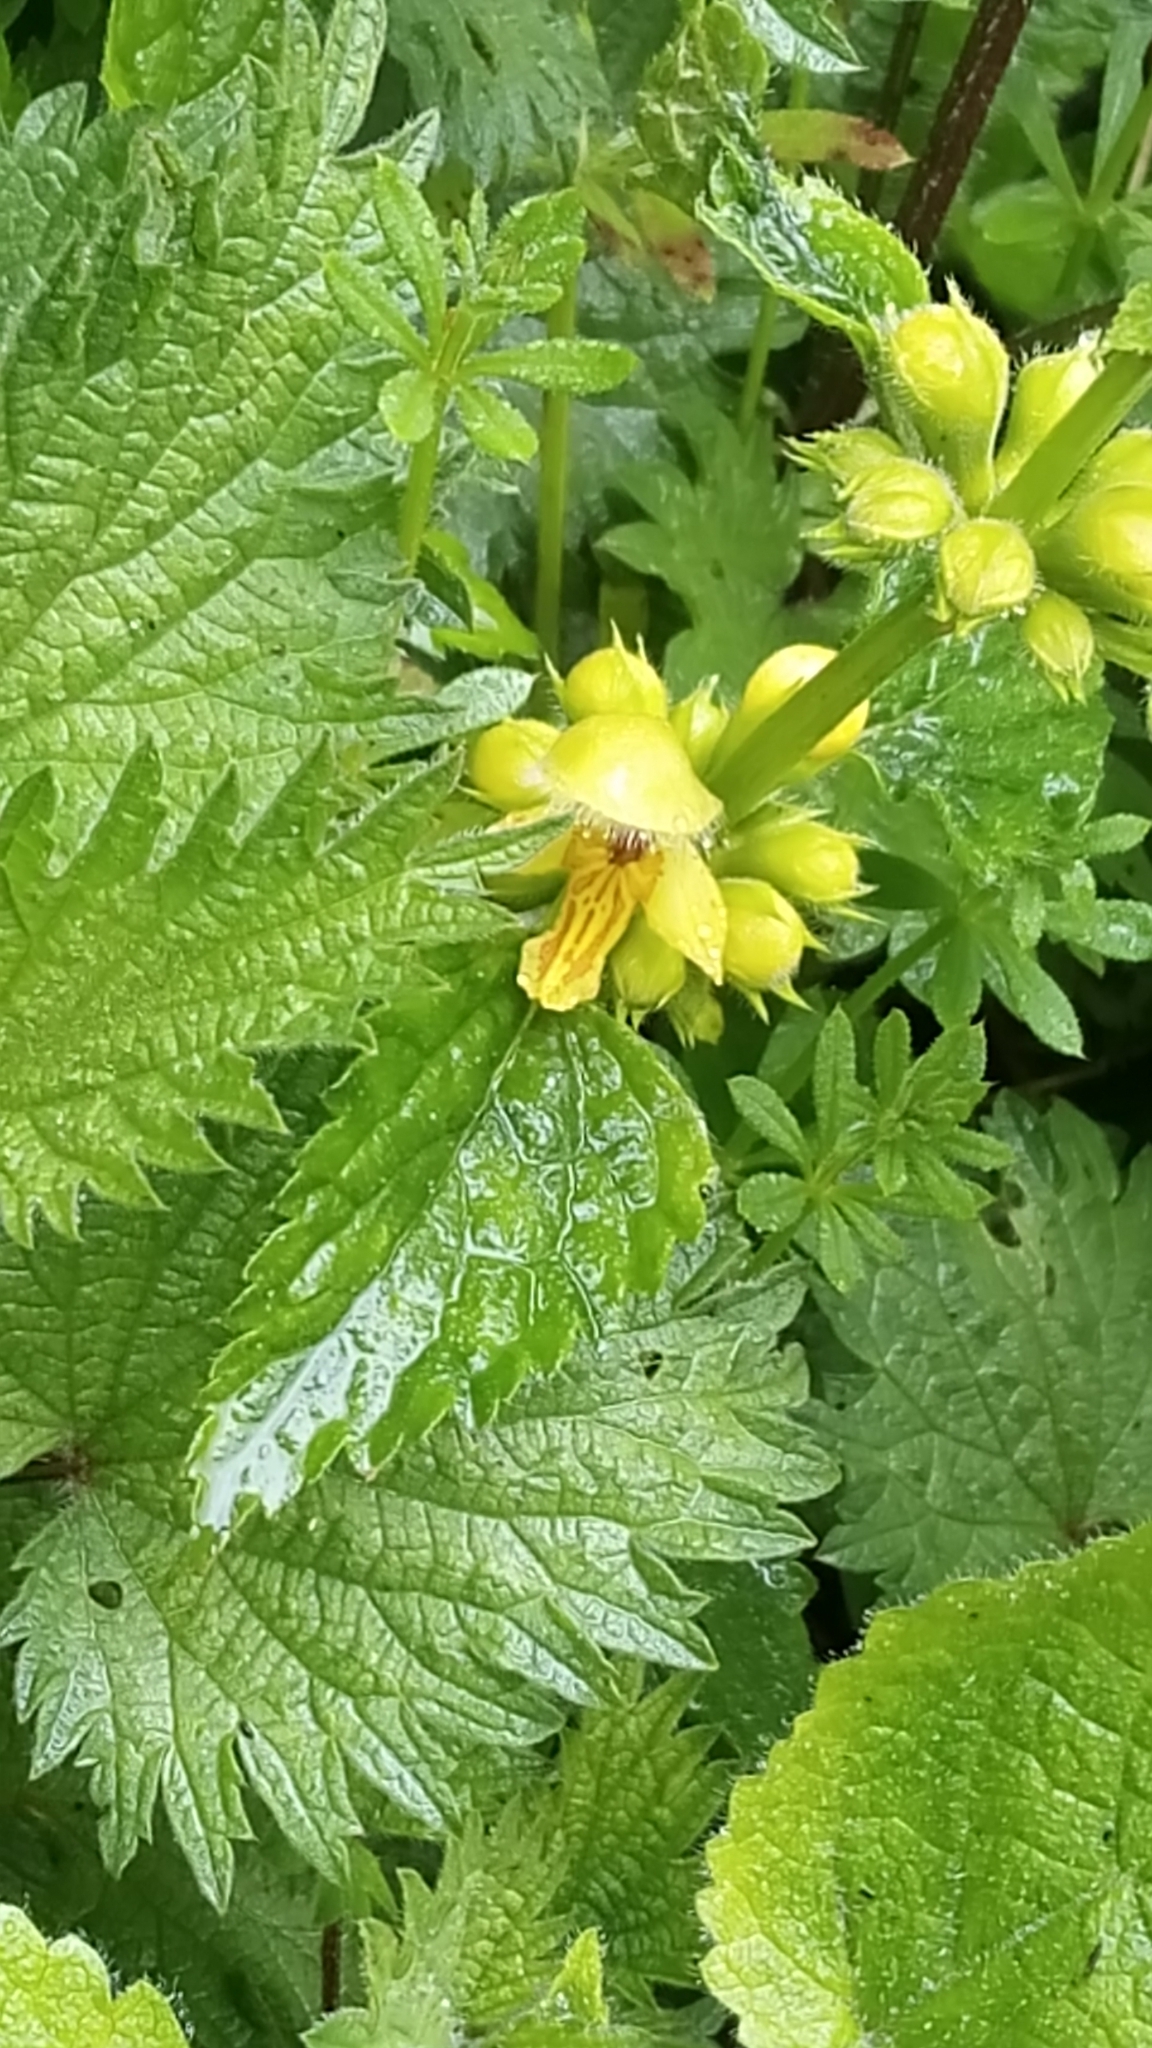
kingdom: Plantae
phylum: Tracheophyta
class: Magnoliopsida
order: Lamiales
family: Lamiaceae
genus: Lamium
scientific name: Lamium galeobdolon
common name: Yellow archangel
